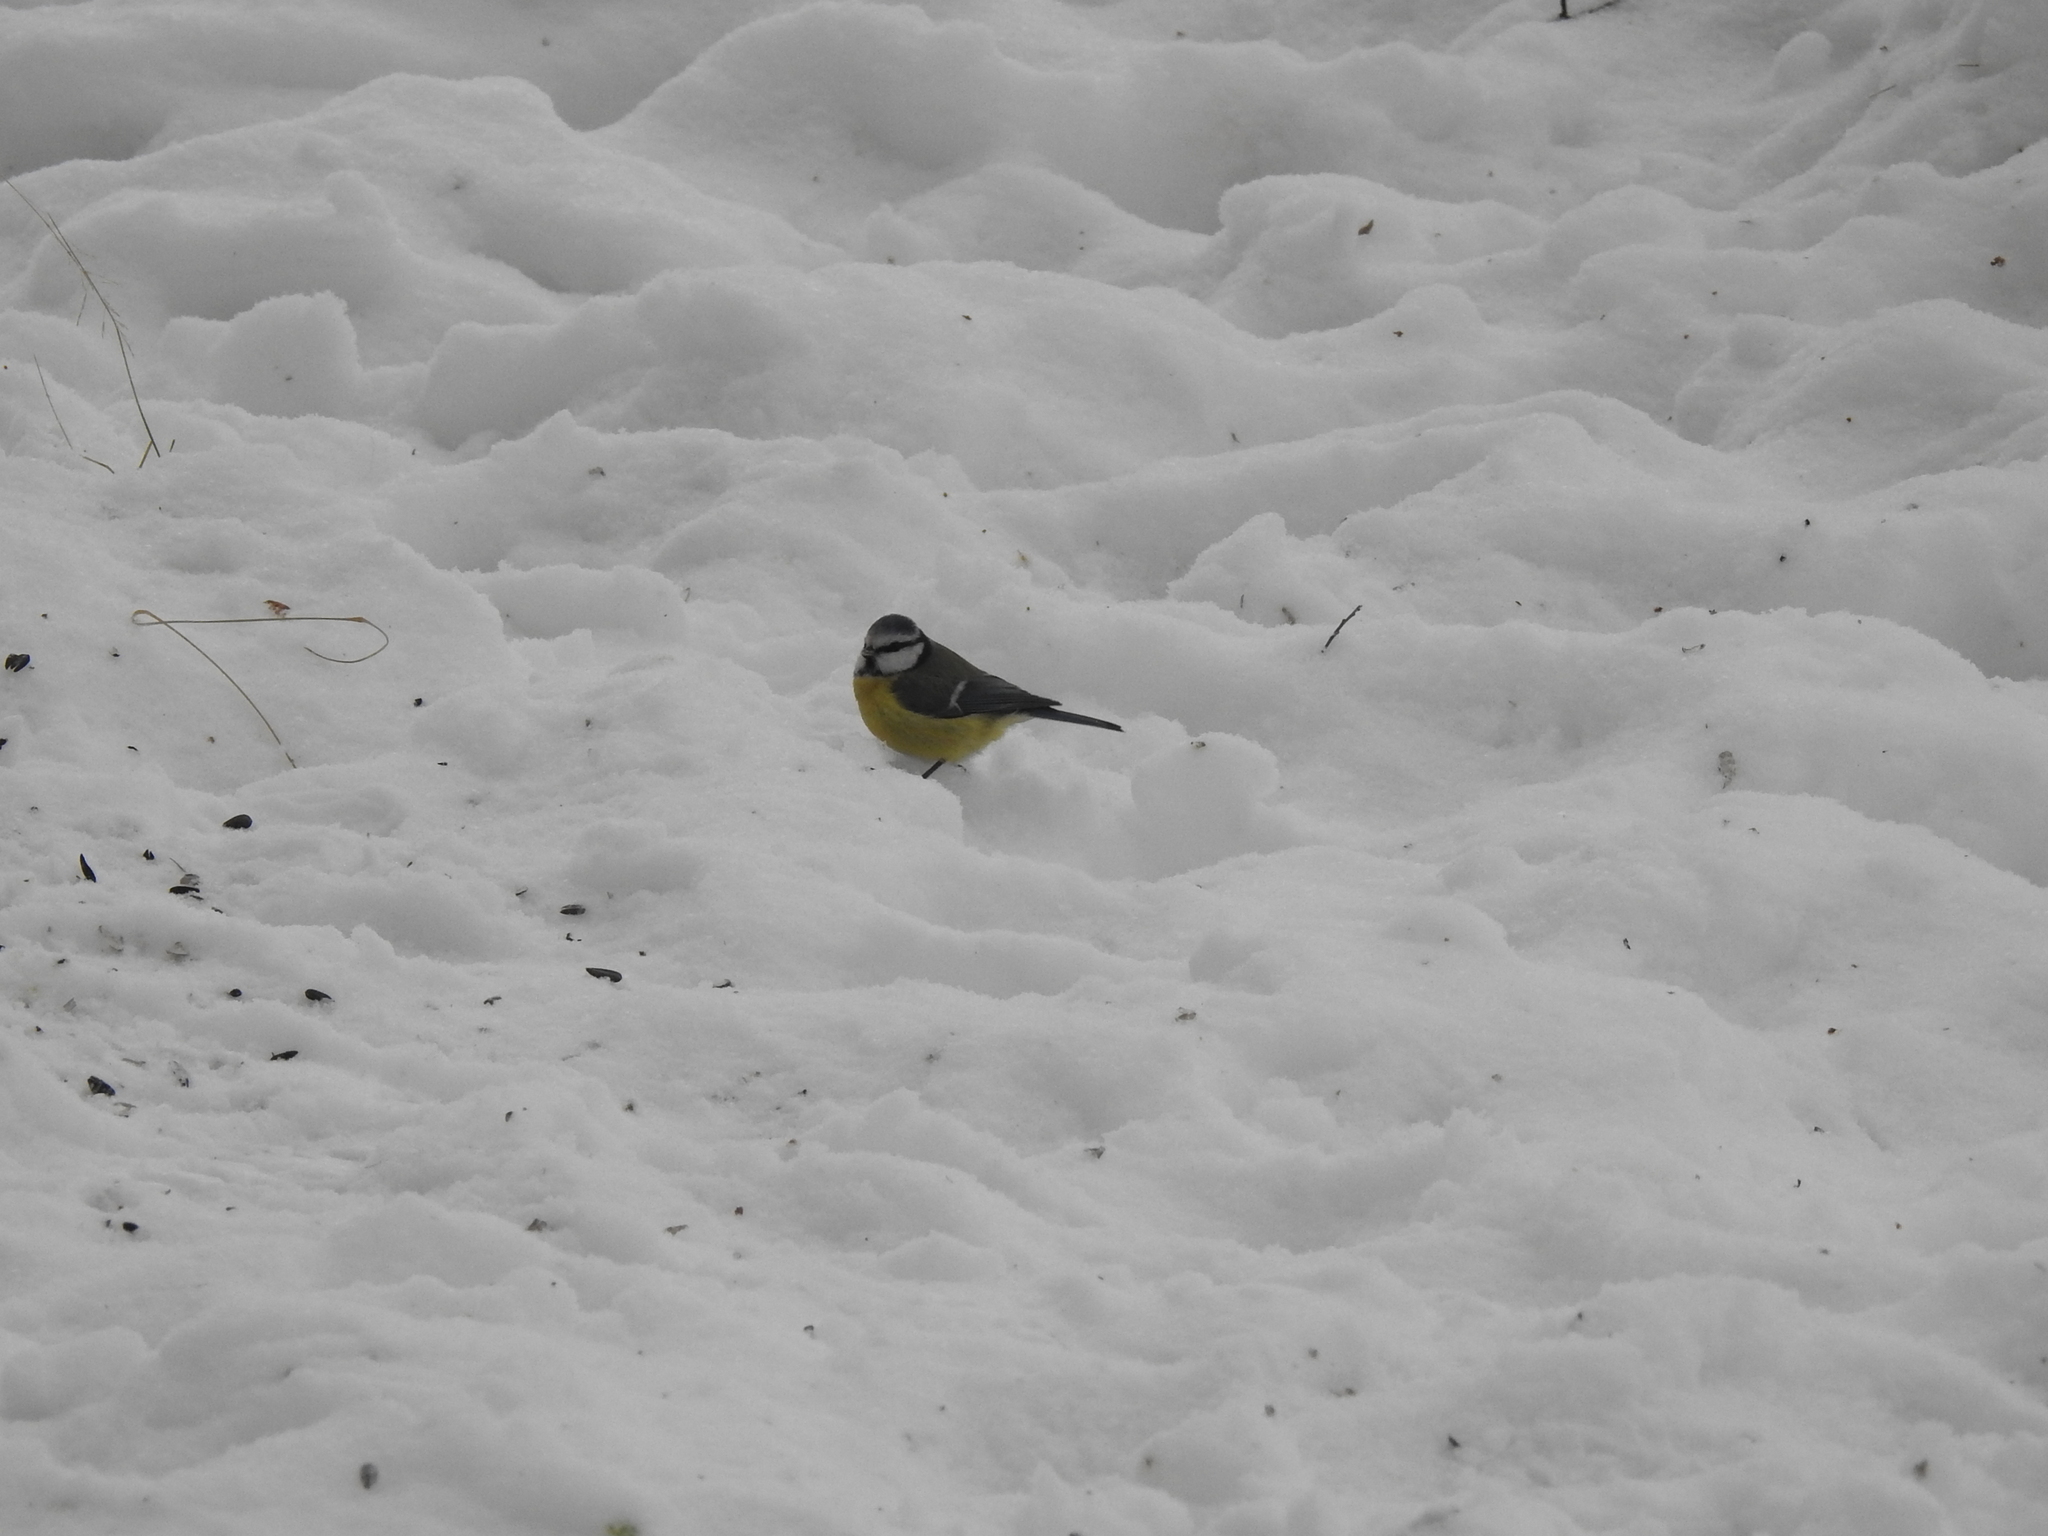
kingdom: Animalia
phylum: Chordata
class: Aves
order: Passeriformes
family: Paridae
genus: Cyanistes
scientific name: Cyanistes caeruleus
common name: Eurasian blue tit
